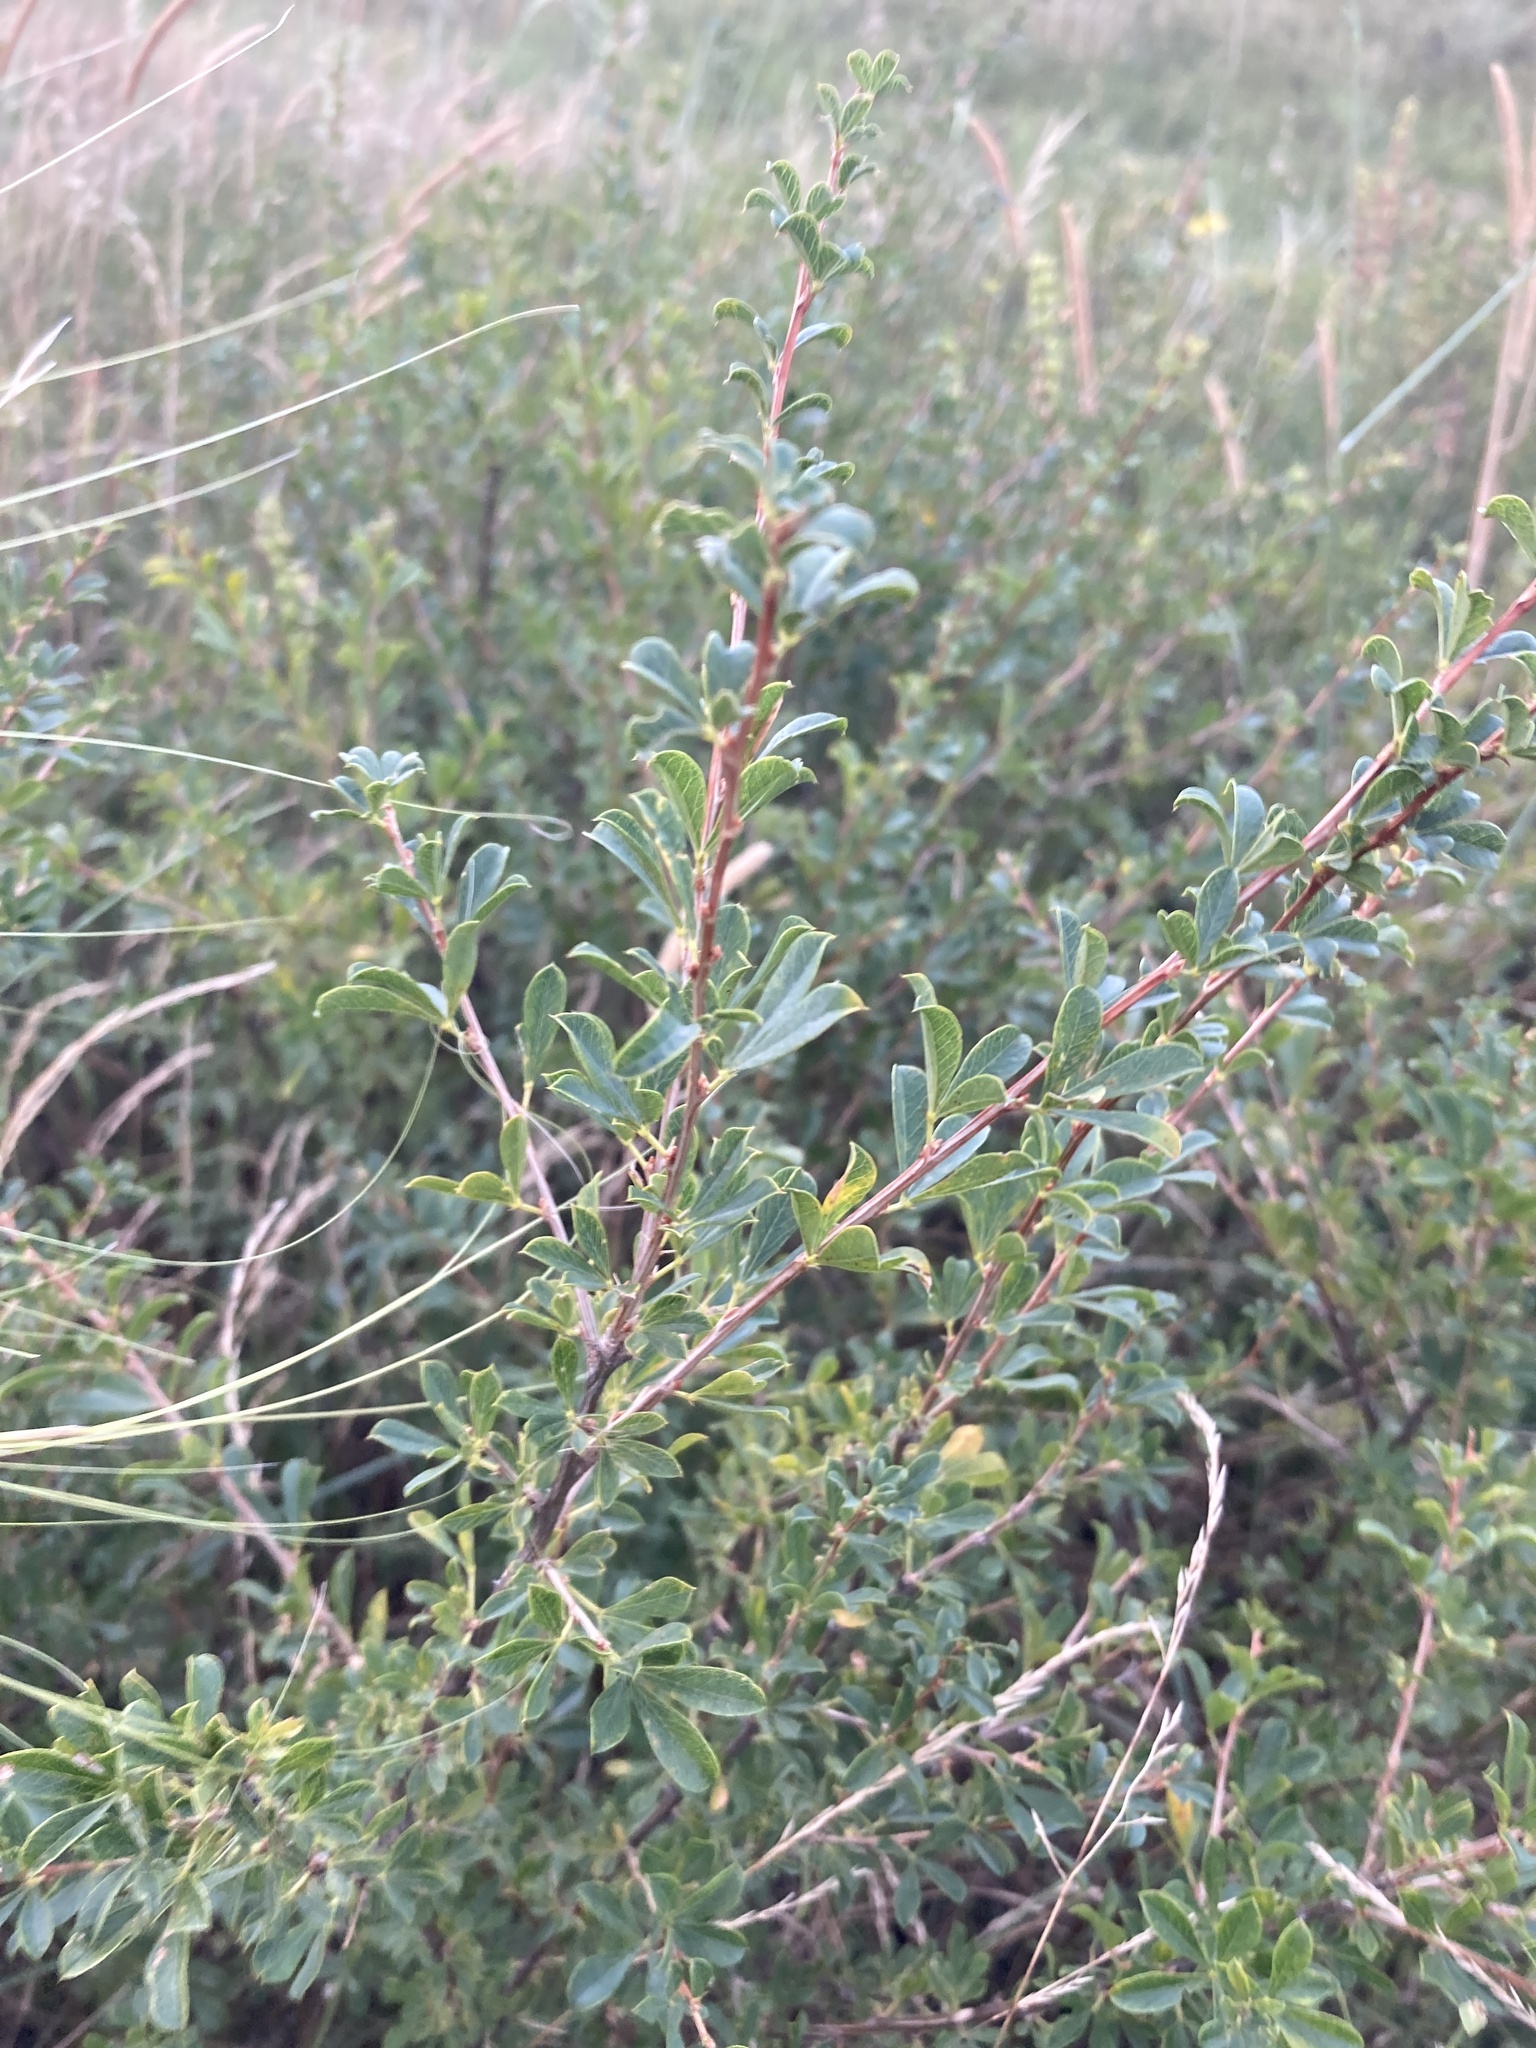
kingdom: Plantae
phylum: Tracheophyta
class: Magnoliopsida
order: Fabales
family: Fabaceae
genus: Caragana
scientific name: Caragana frutex
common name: Russian peashrub
